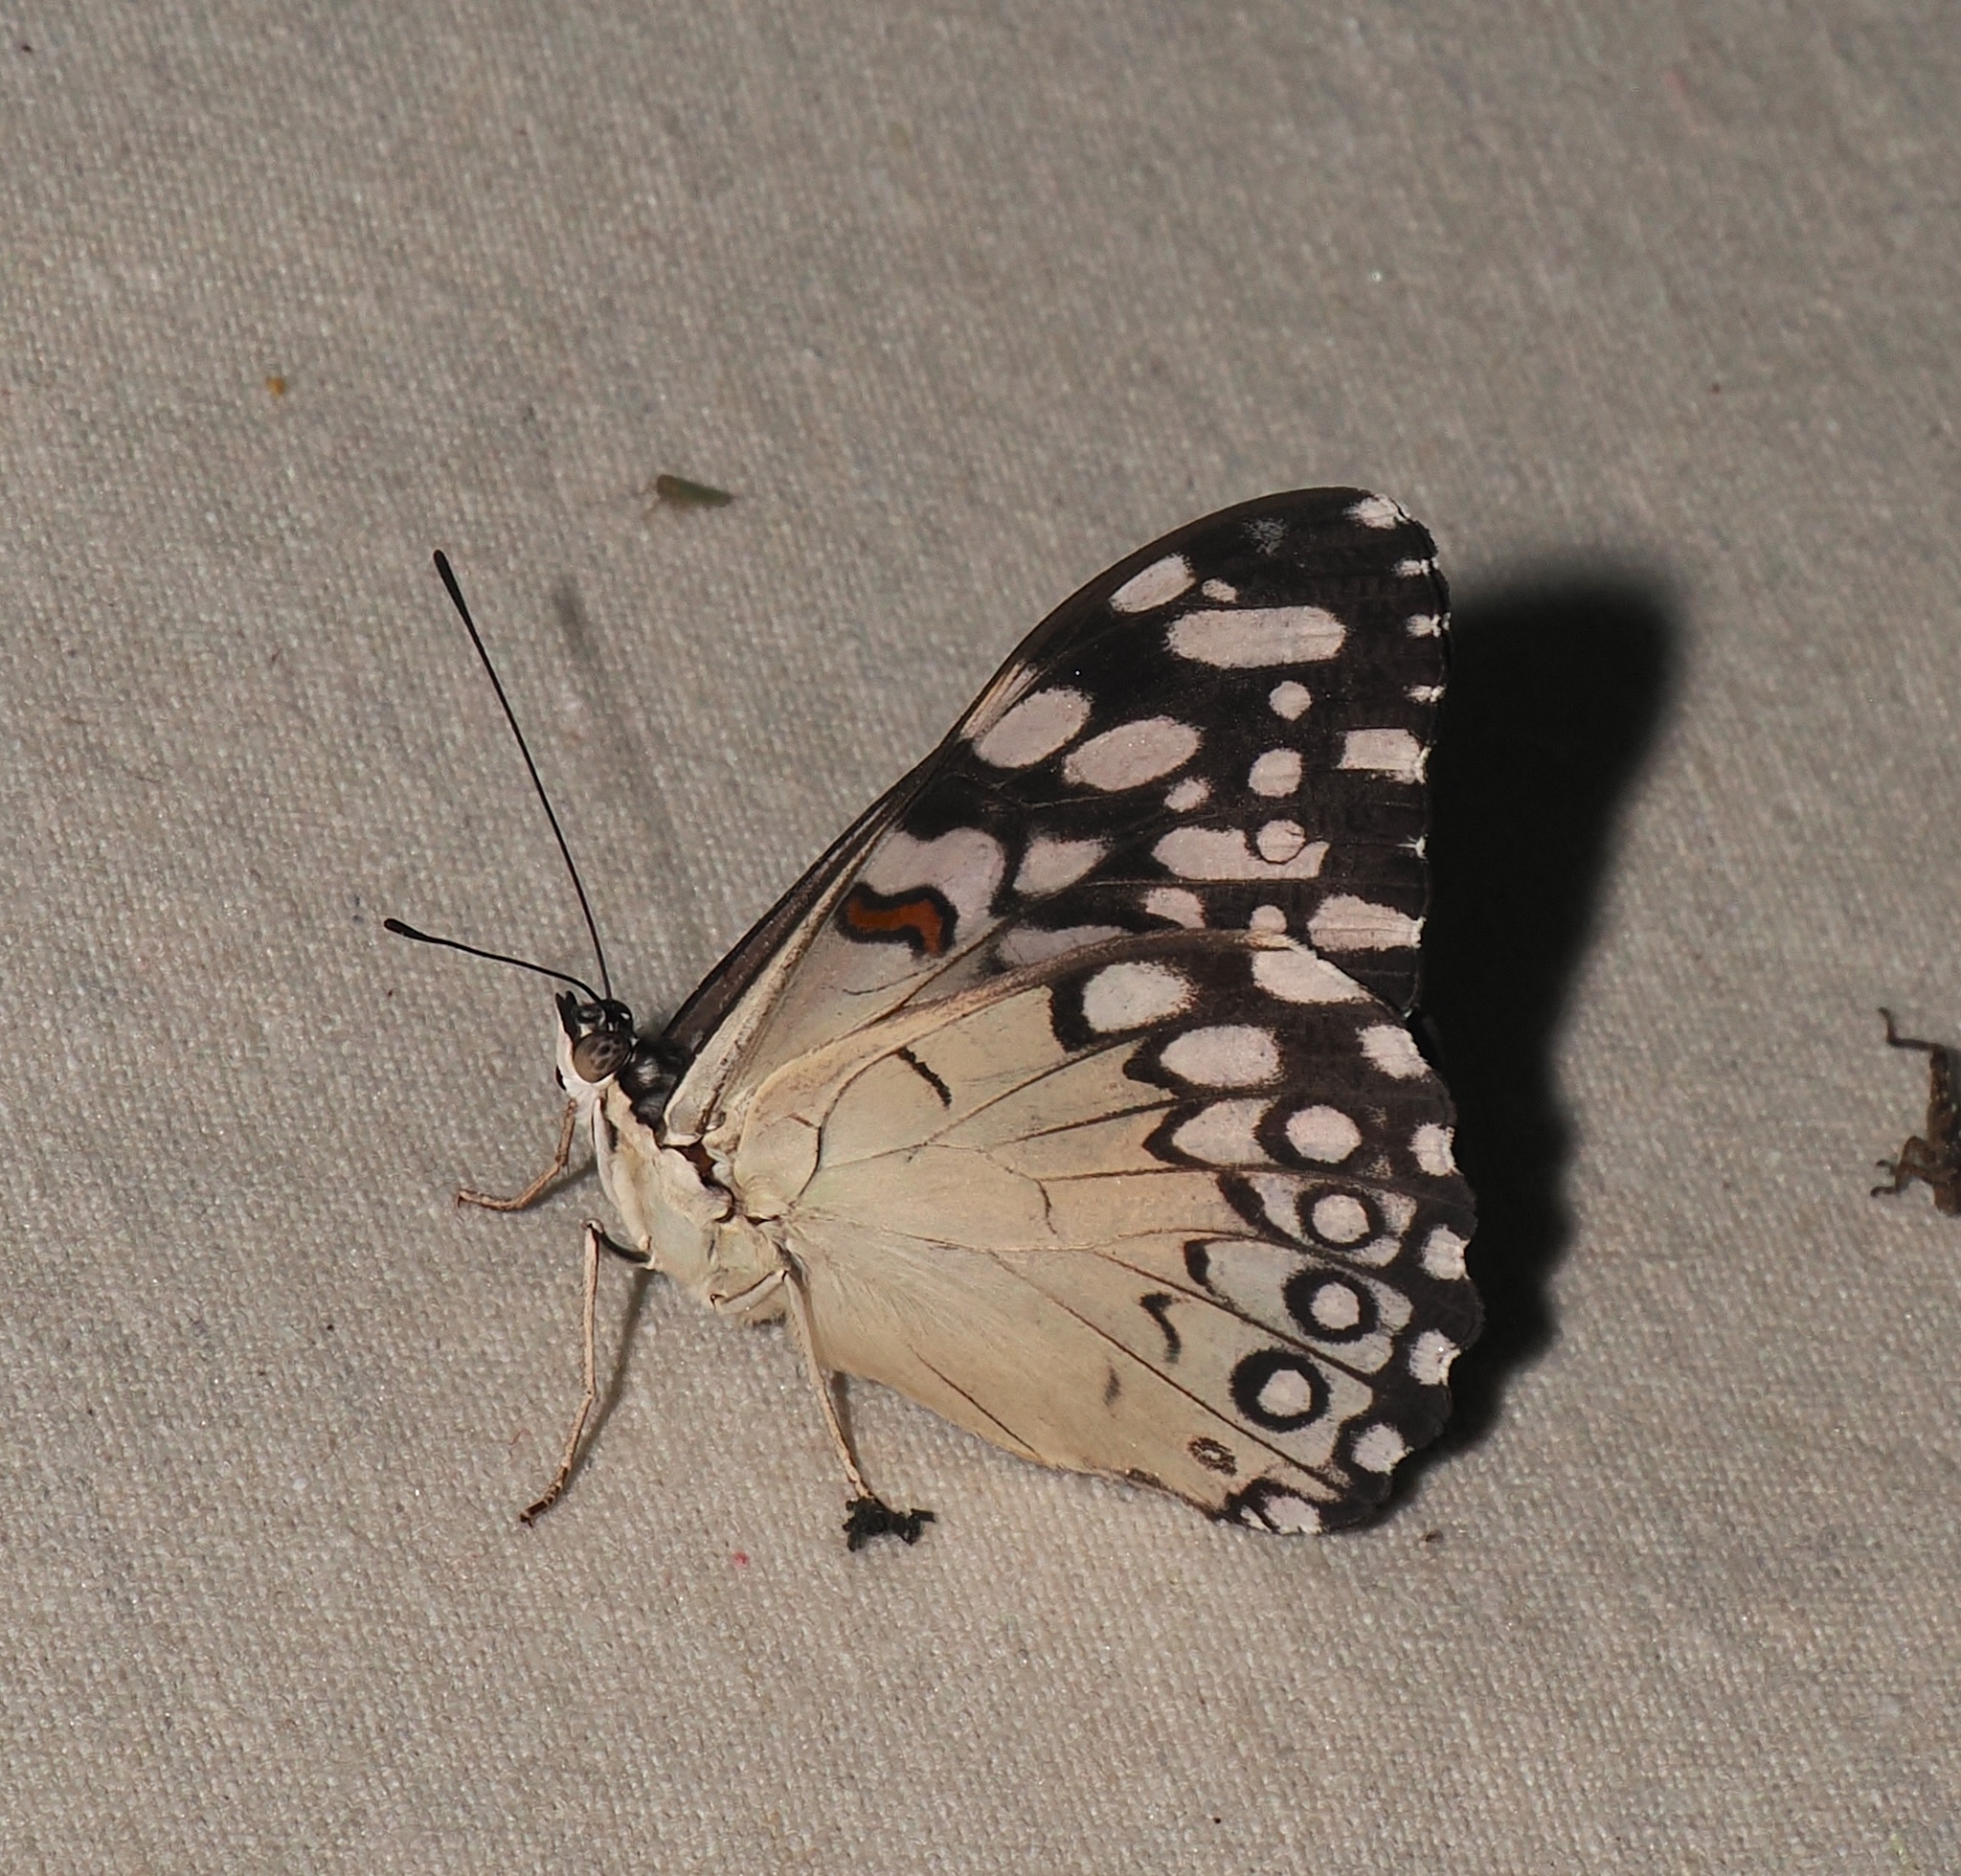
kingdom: Animalia
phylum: Arthropoda
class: Insecta
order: Lepidoptera
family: Nymphalidae
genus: Hamadryas
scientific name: Hamadryas feronia
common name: Variable cracker
